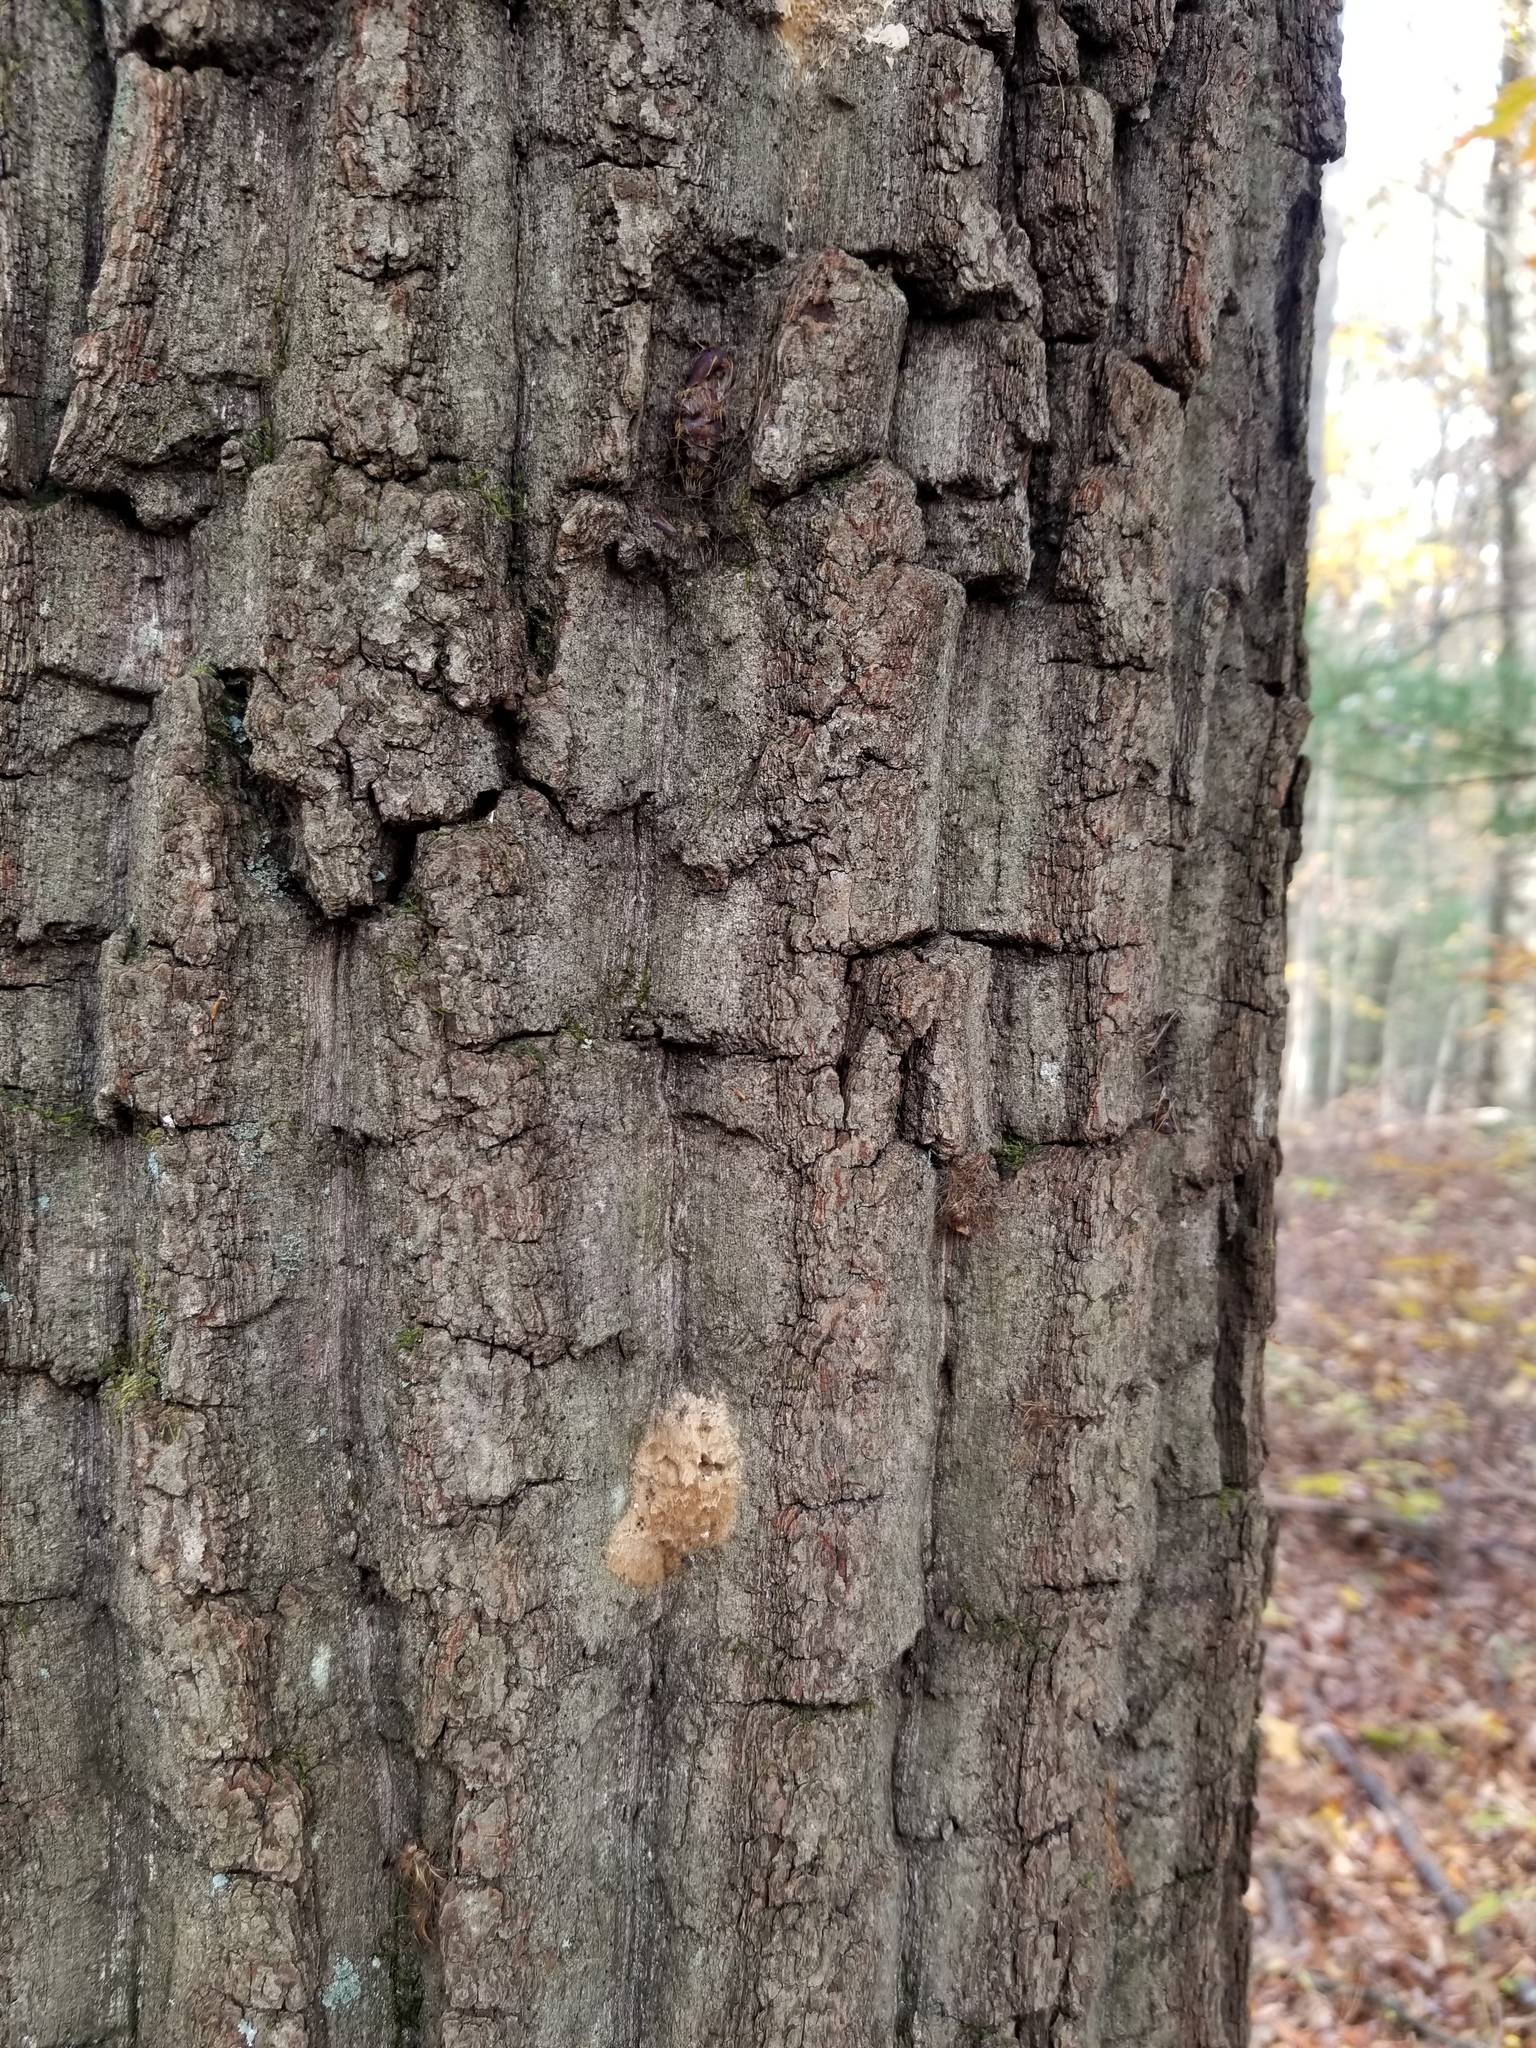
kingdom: Animalia
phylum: Arthropoda
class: Insecta
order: Lepidoptera
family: Erebidae
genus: Lymantria
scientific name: Lymantria dispar
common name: Gypsy moth
